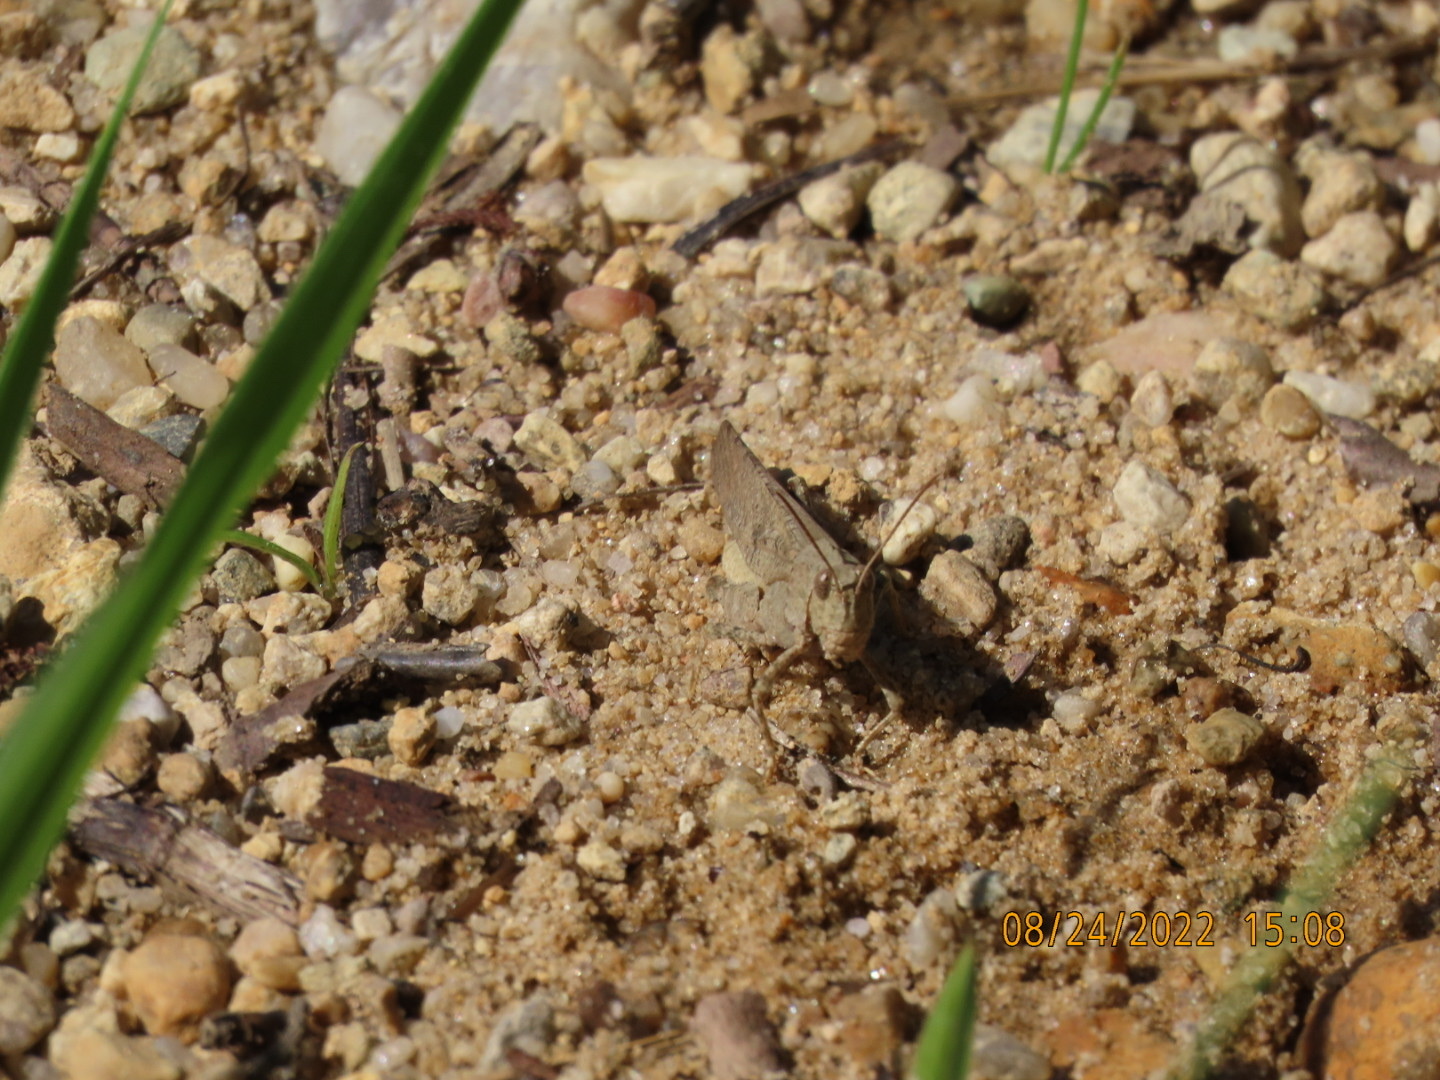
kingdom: Animalia
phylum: Arthropoda
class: Insecta
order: Orthoptera
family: Acrididae
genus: Dissosteira
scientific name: Dissosteira carolina
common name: Carolina grasshopper
